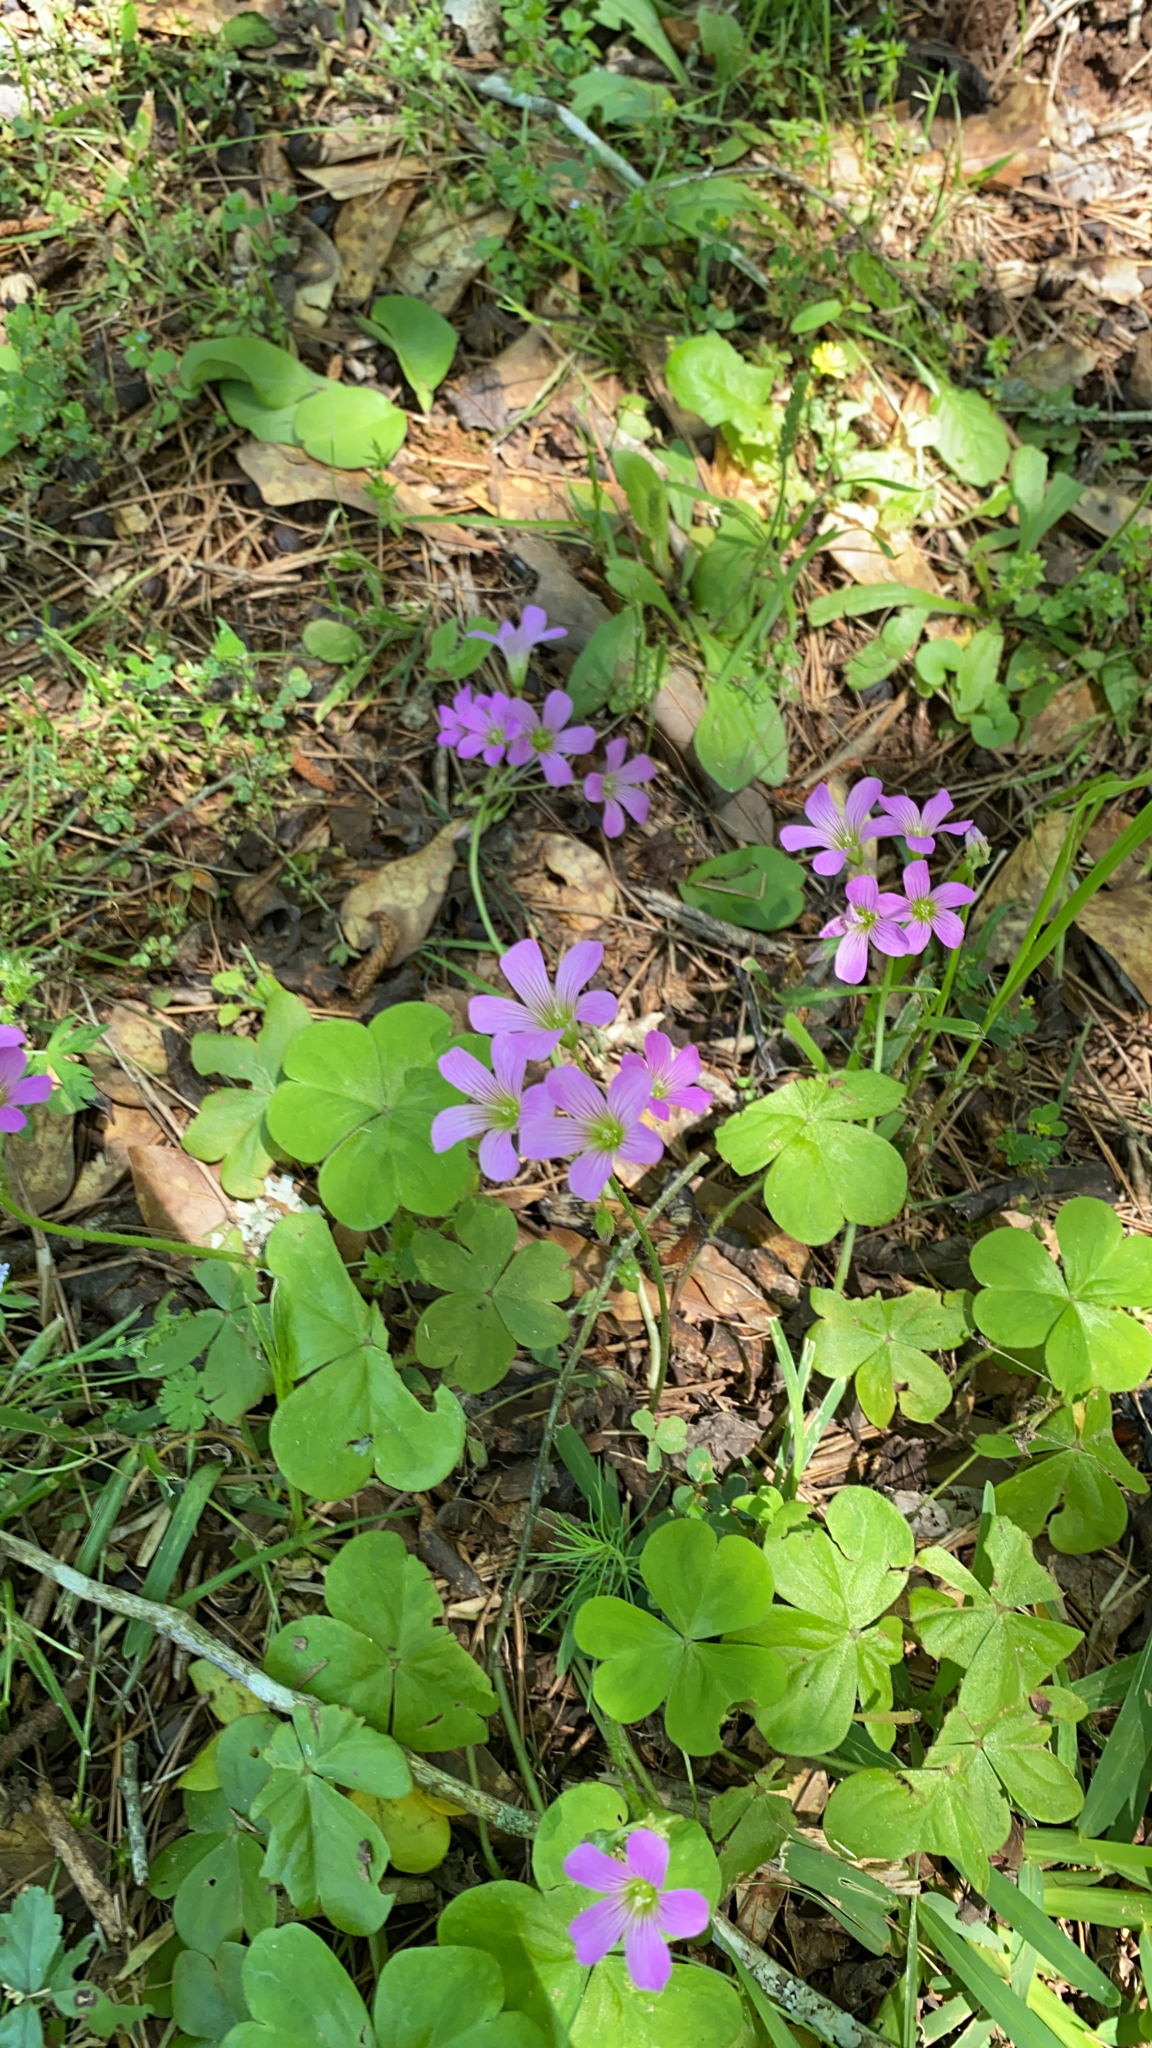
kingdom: Plantae
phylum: Tracheophyta
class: Magnoliopsida
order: Oxalidales
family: Oxalidaceae
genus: Oxalis
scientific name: Oxalis debilis
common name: Large-flowered pink-sorrel
